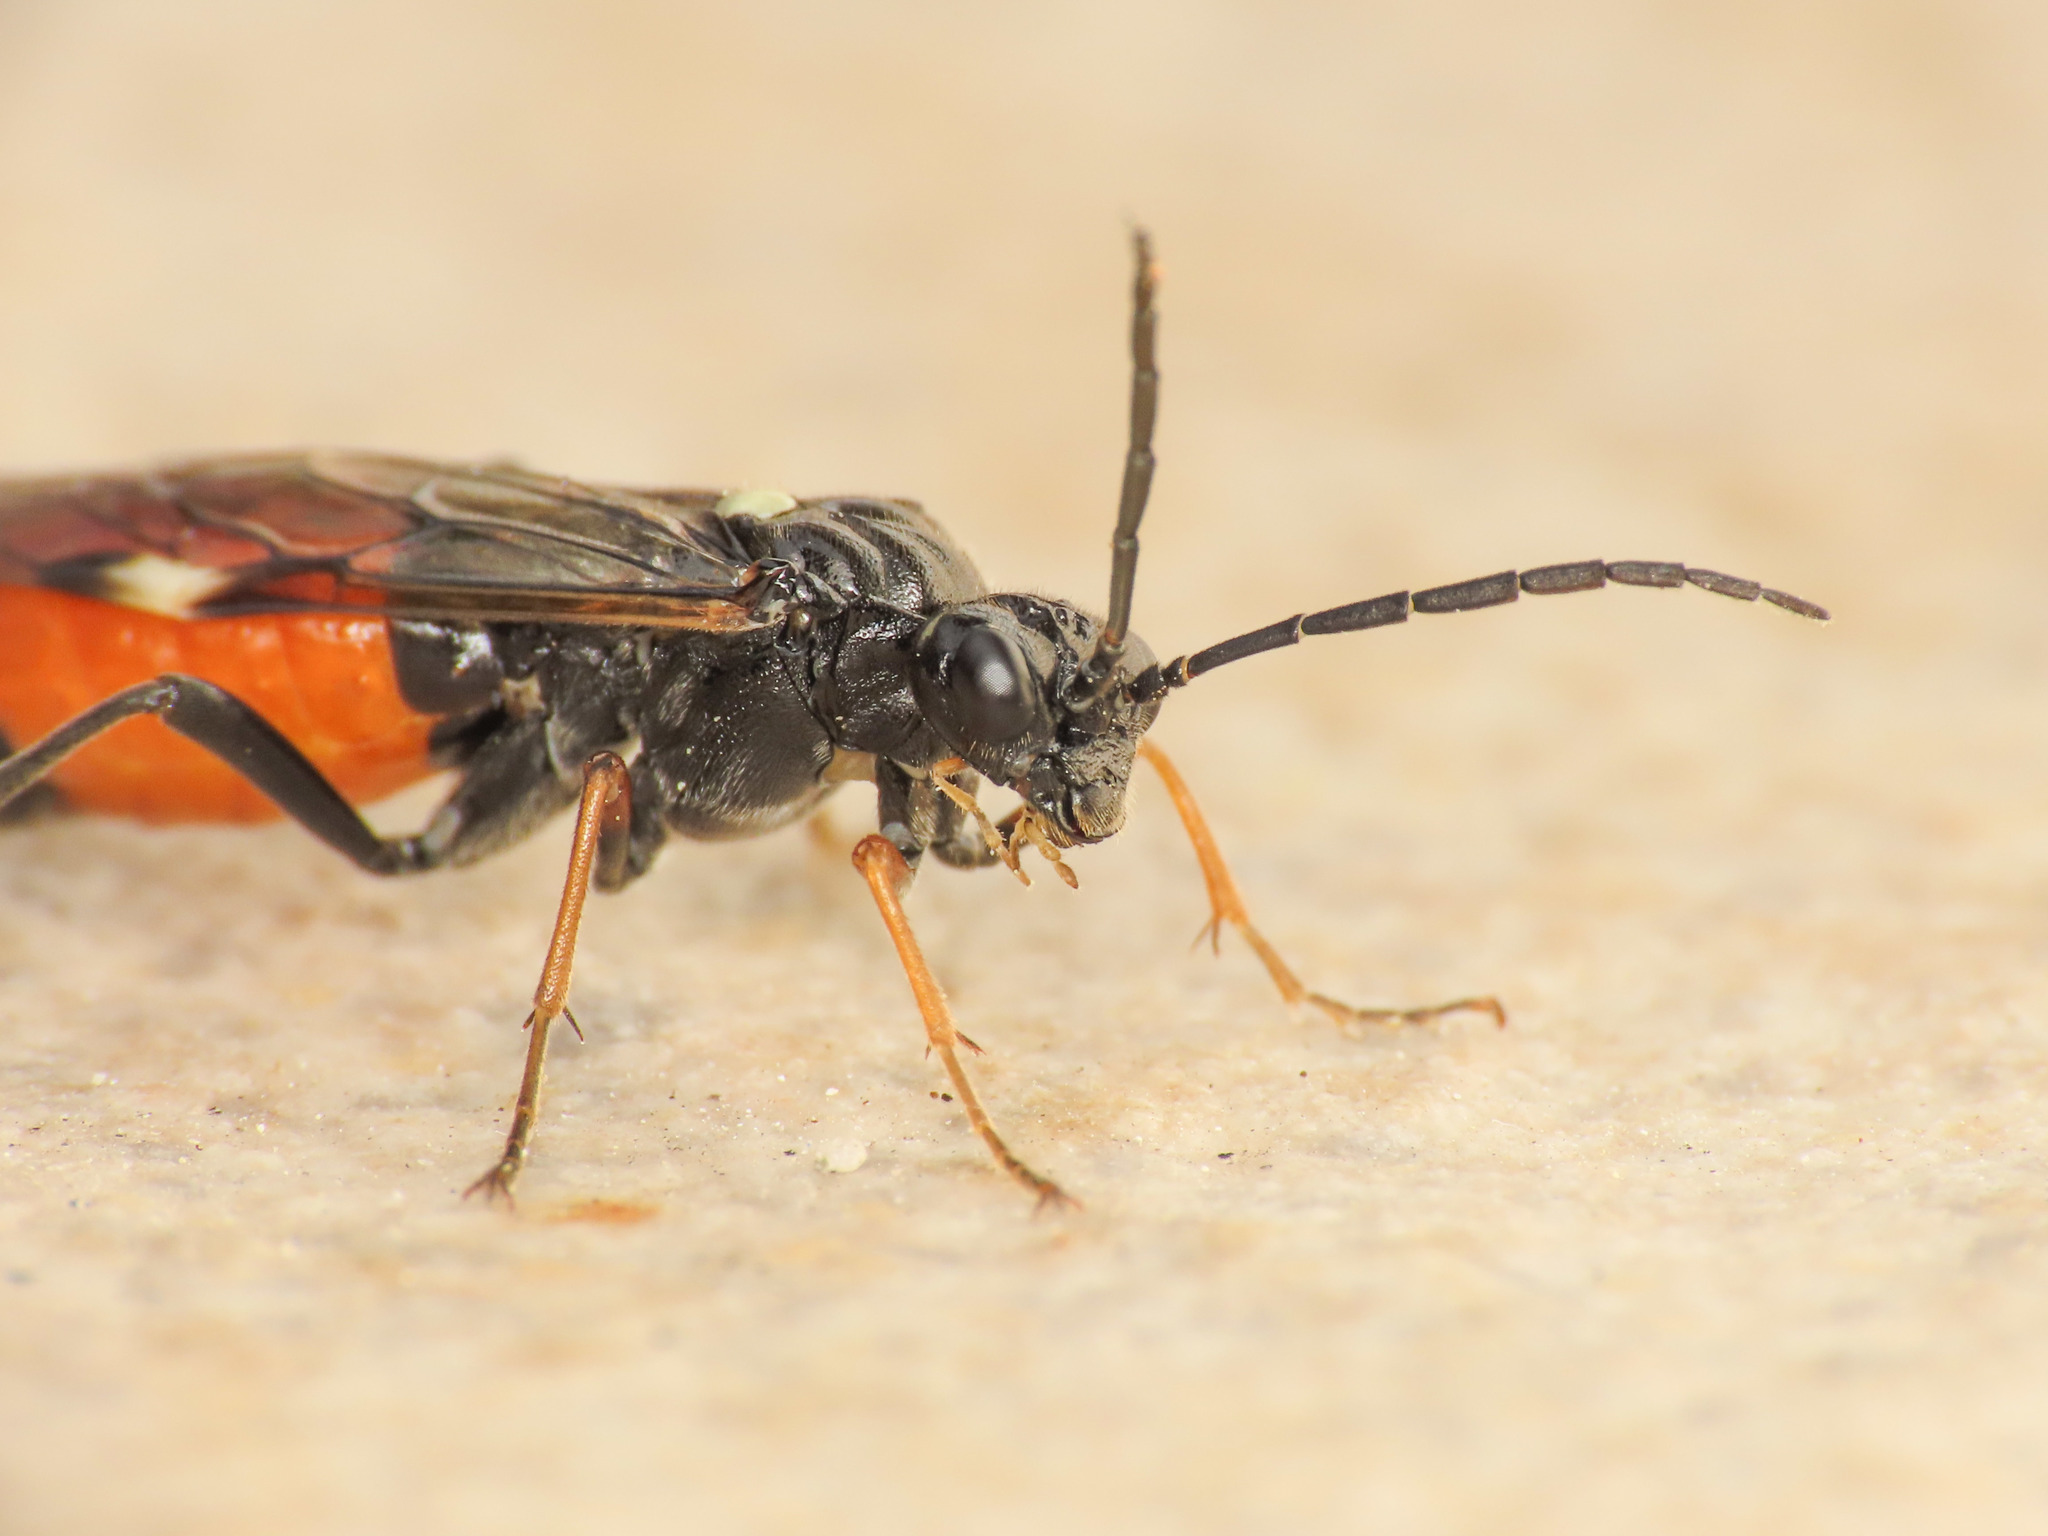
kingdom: Animalia
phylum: Arthropoda
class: Insecta
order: Hymenoptera
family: Tenthredinidae
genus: Tenthredopsis
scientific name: Tenthredopsis floricola
